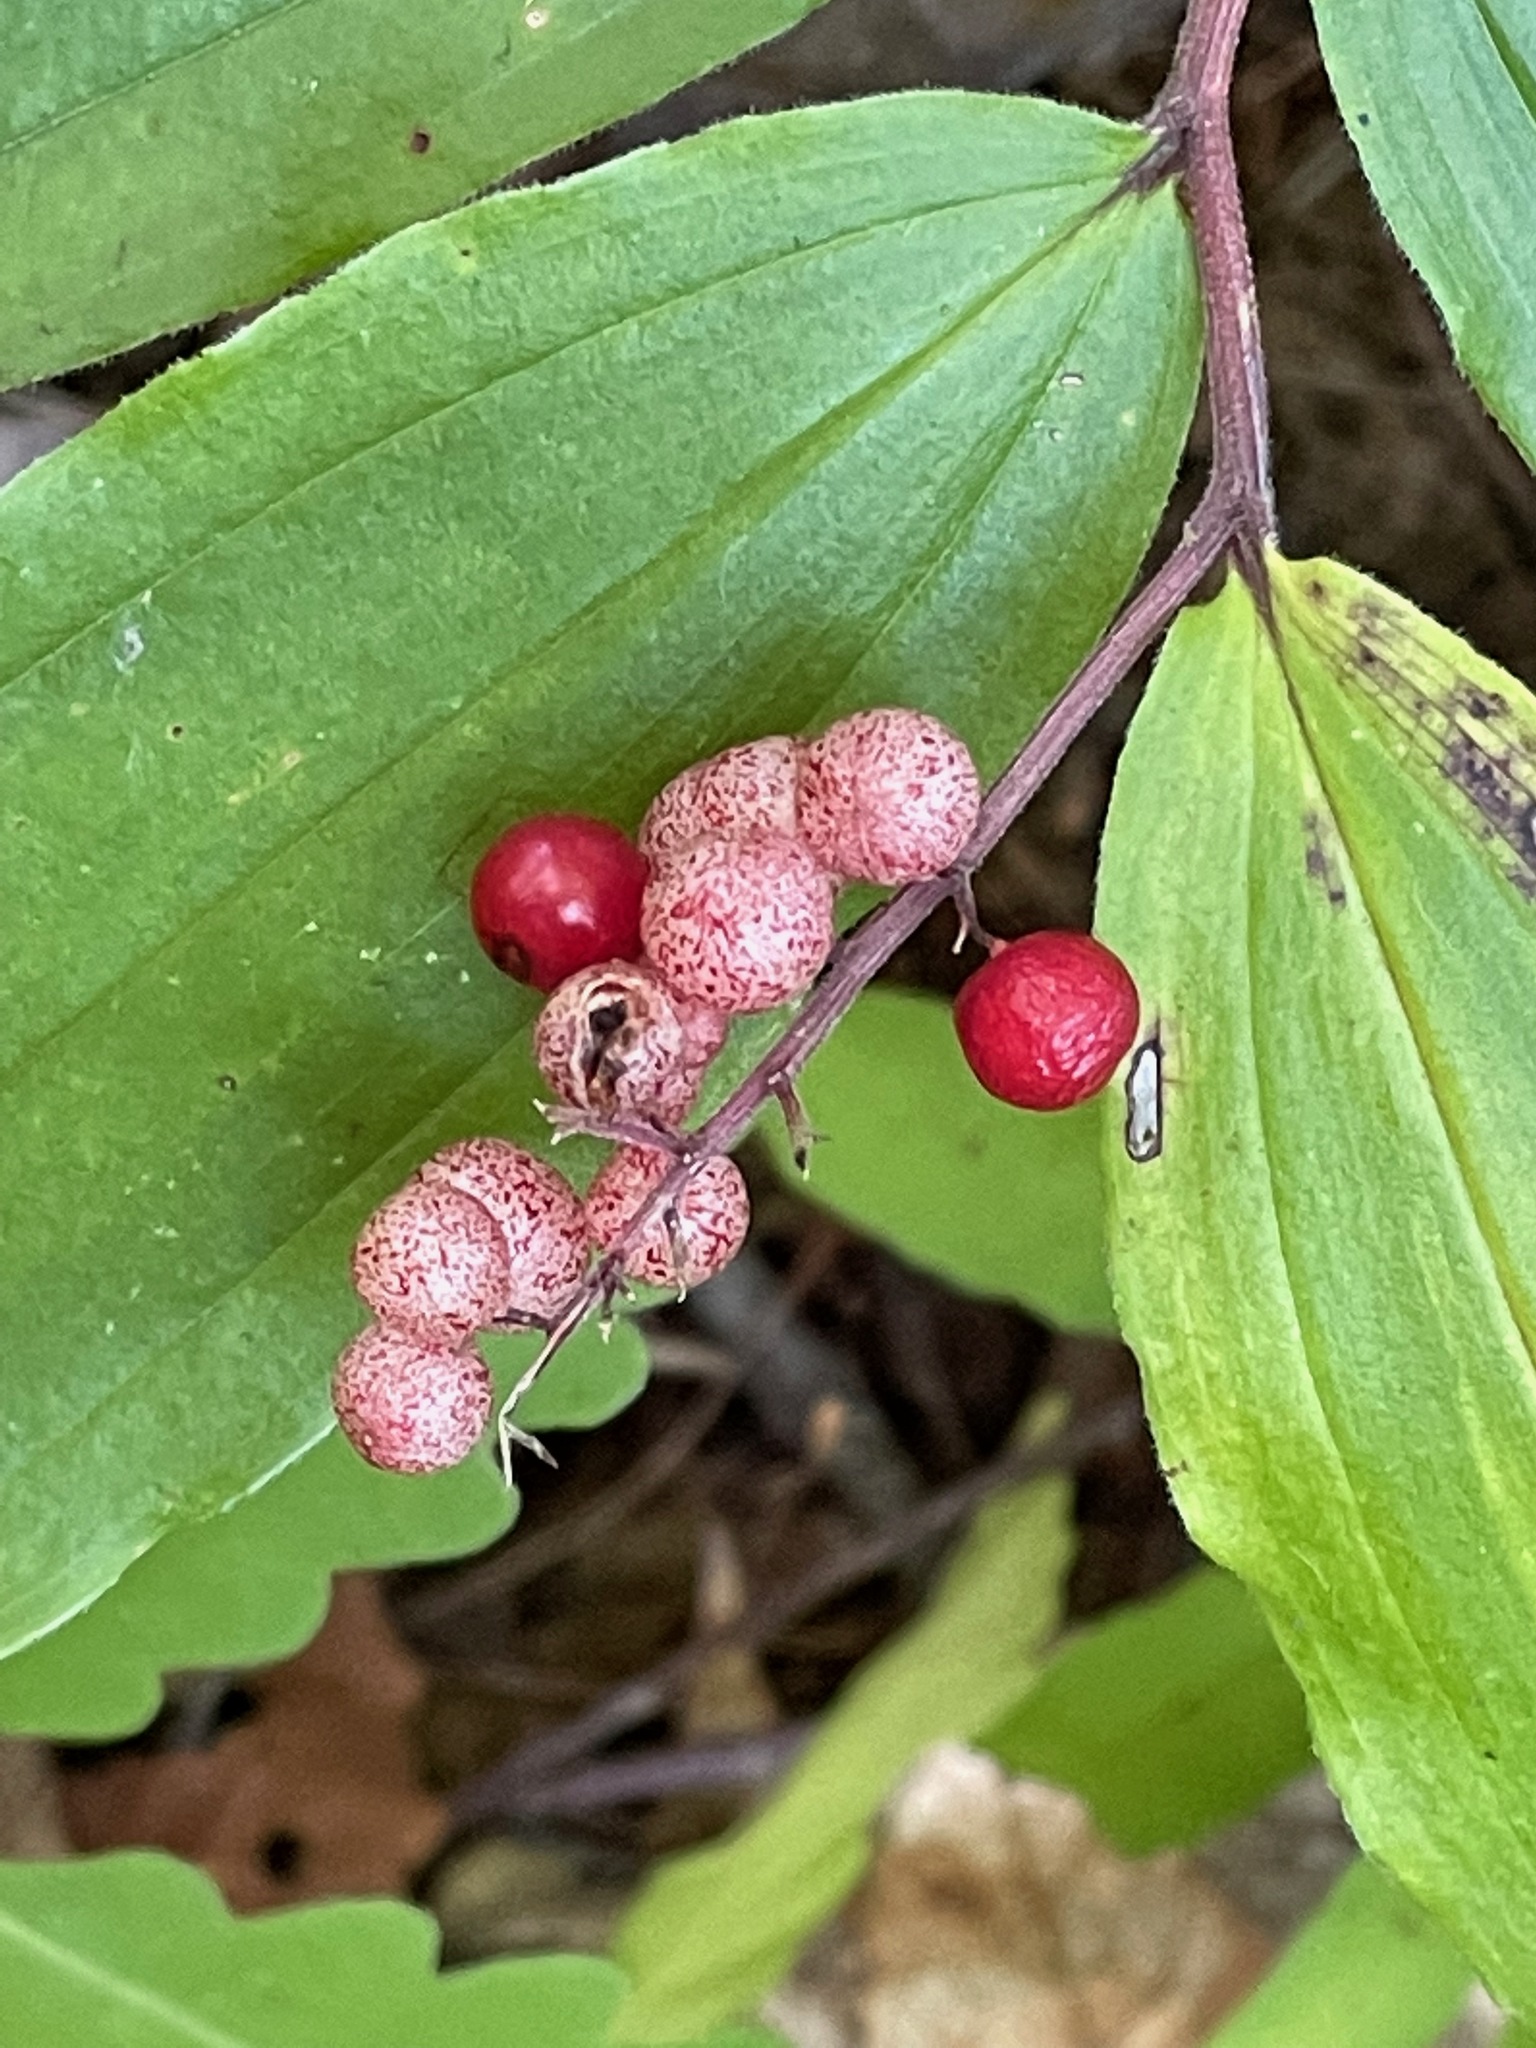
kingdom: Plantae
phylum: Tracheophyta
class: Liliopsida
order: Asparagales
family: Asparagaceae
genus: Maianthemum
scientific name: Maianthemum racemosum
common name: False spikenard
